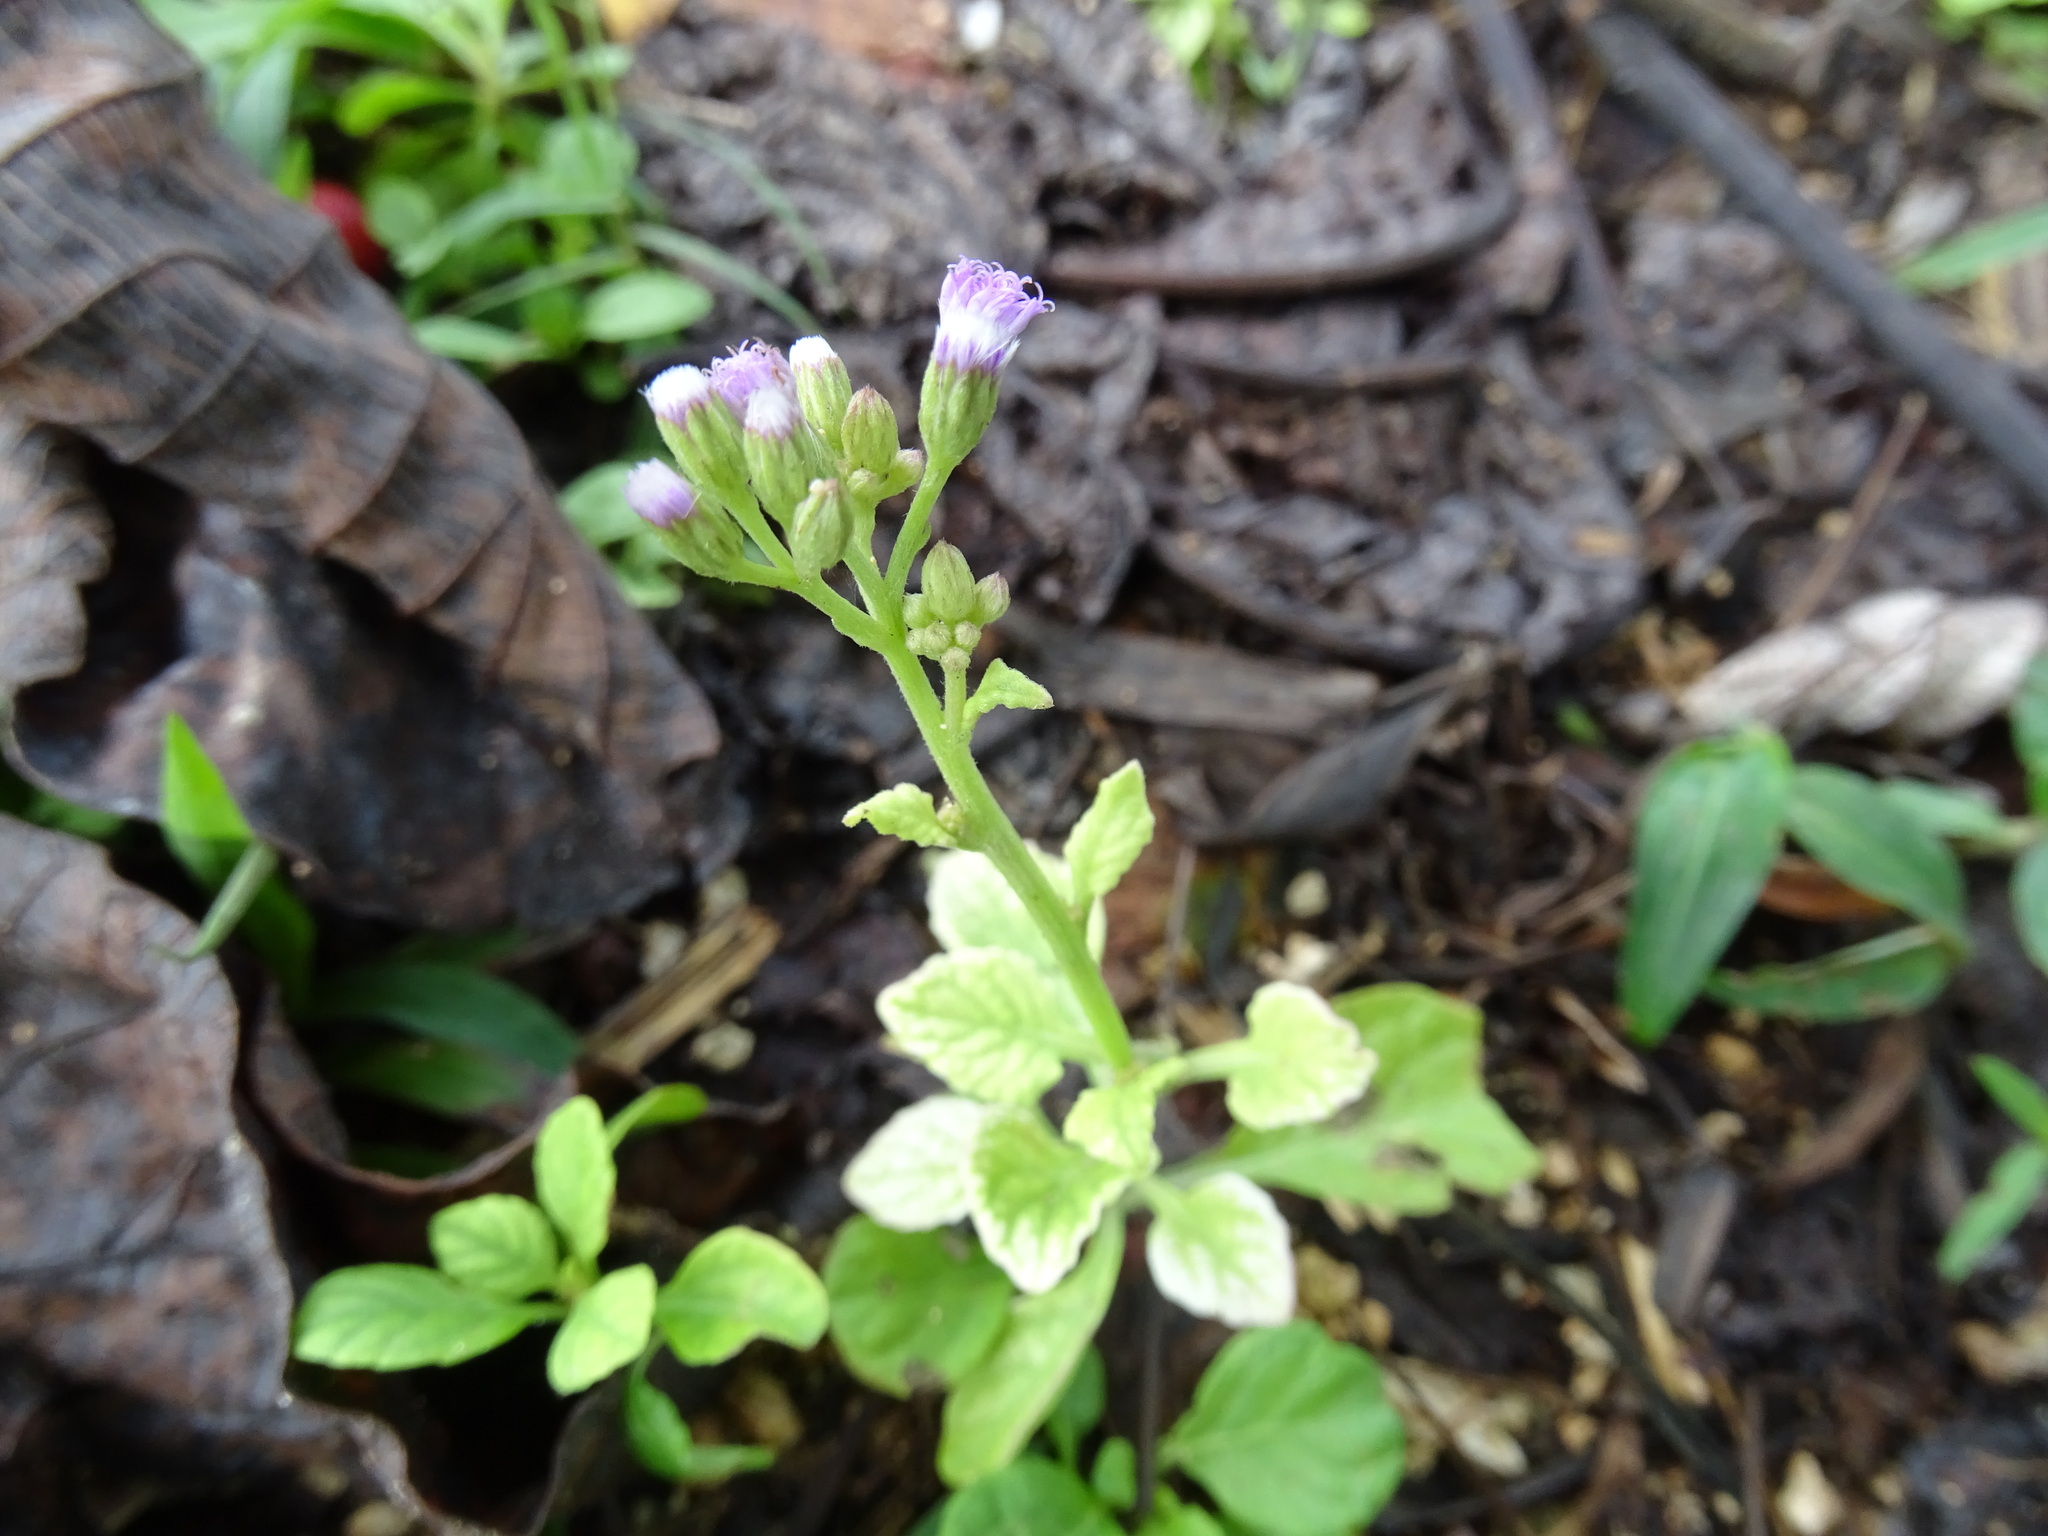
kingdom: Plantae
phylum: Tracheophyta
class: Magnoliopsida
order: Asterales
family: Asteraceae
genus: Cyanthillium
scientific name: Cyanthillium cinereum
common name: Little ironweed
